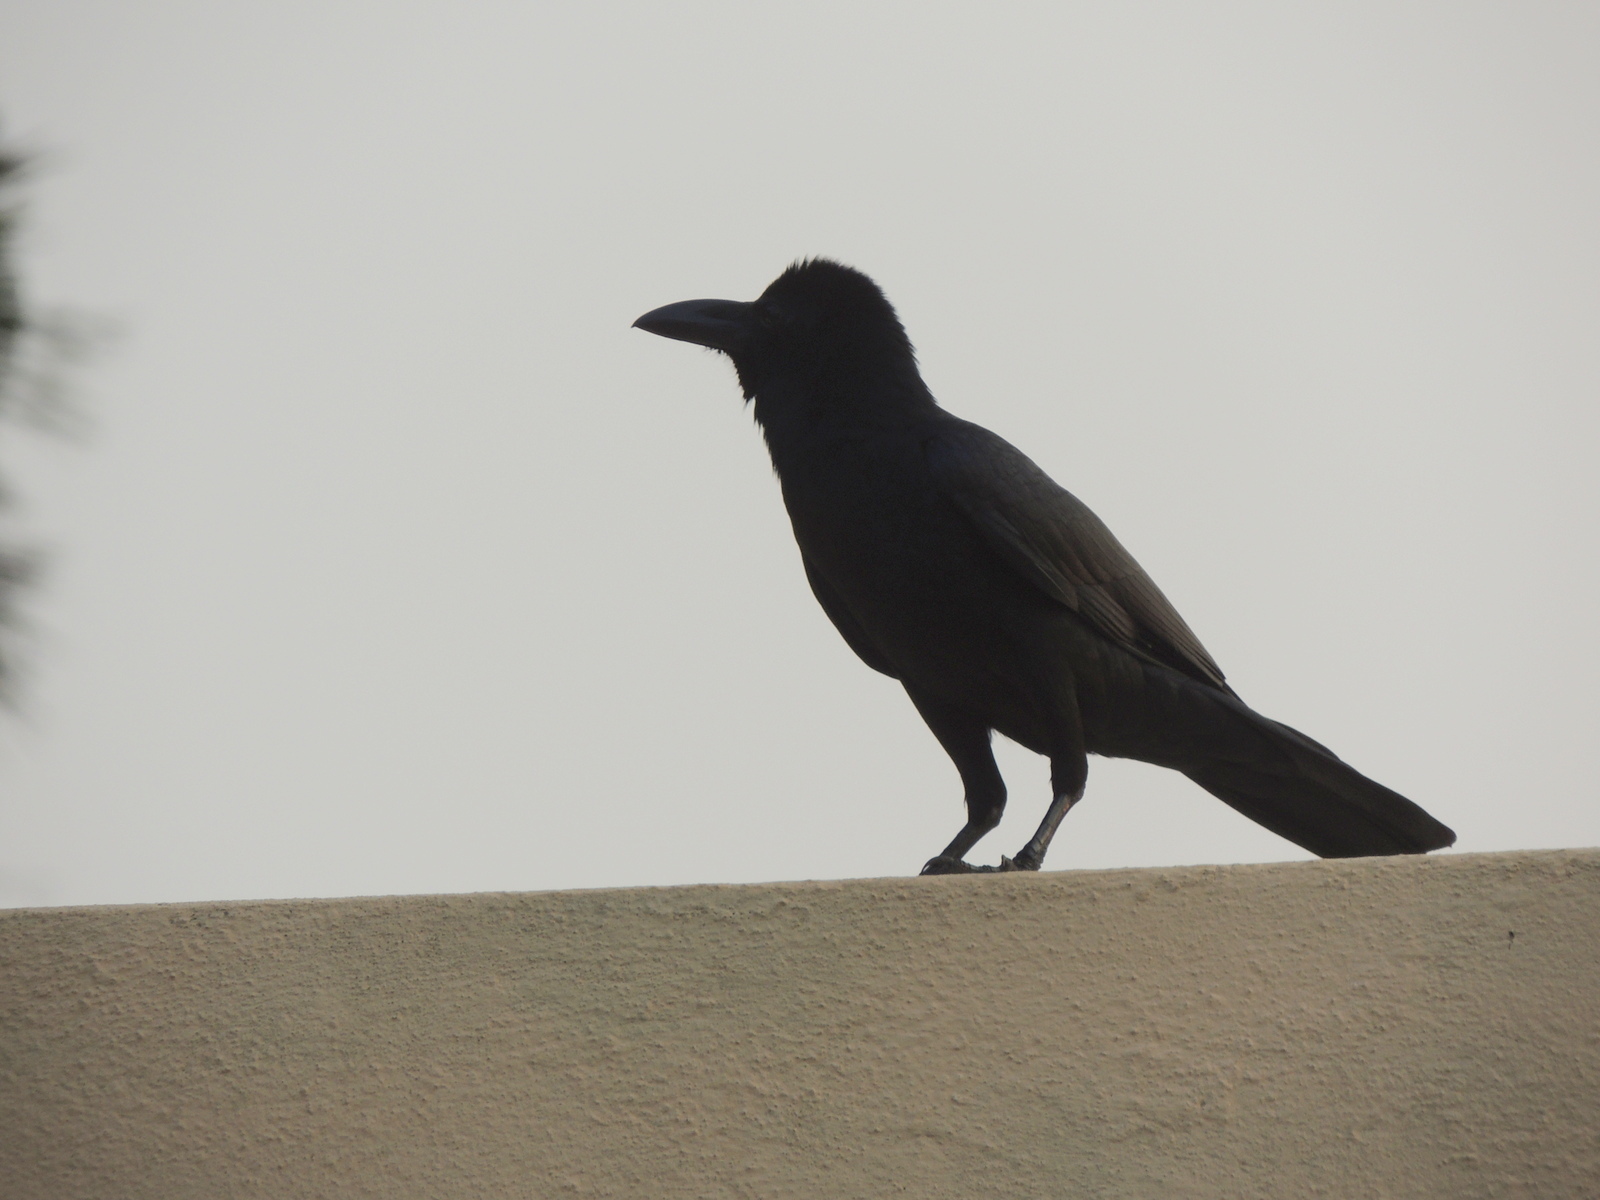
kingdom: Animalia
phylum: Chordata
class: Aves
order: Passeriformes
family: Corvidae
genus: Corvus
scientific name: Corvus macrorhynchos
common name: Large-billed crow
